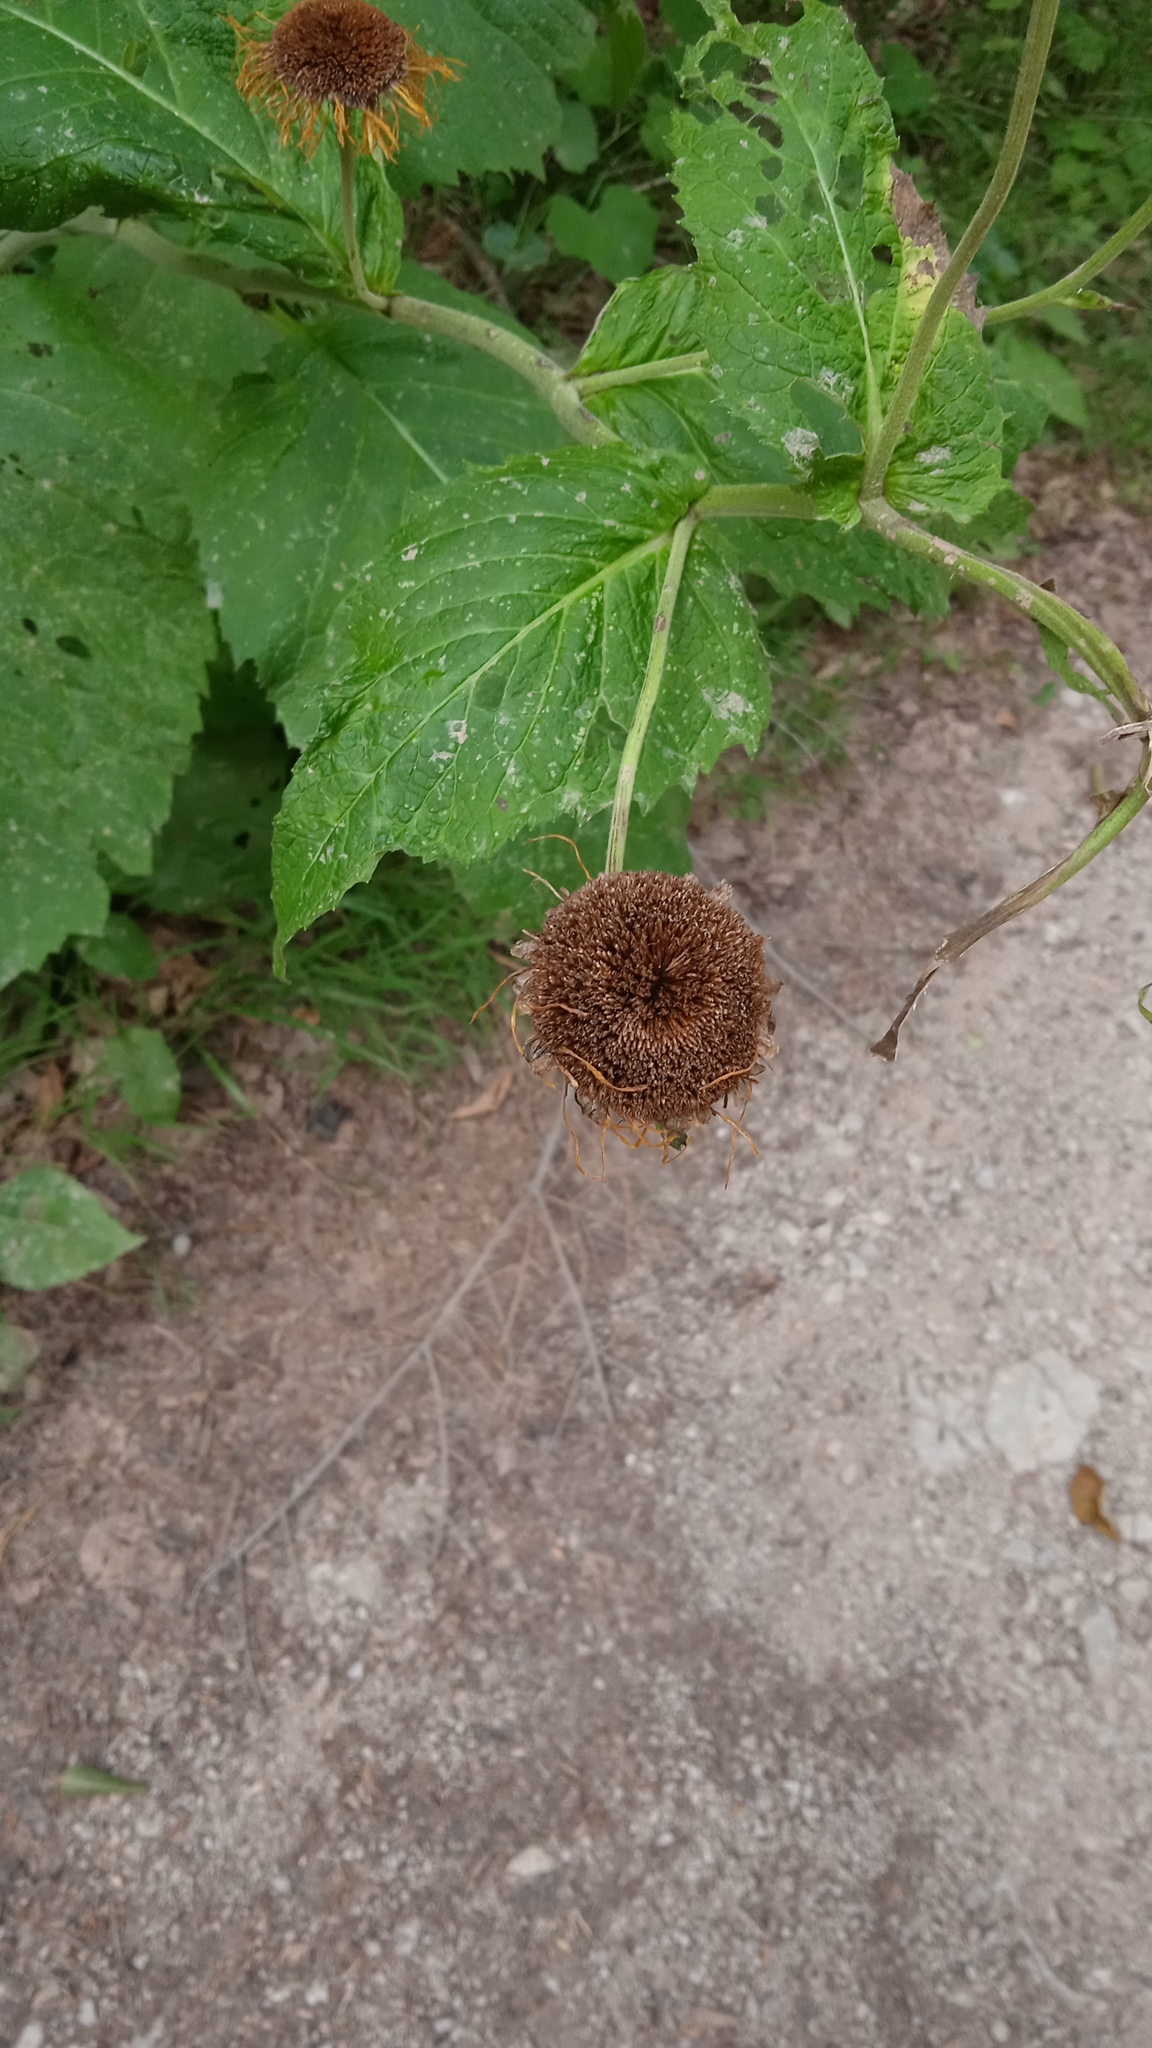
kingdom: Plantae
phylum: Tracheophyta
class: Magnoliopsida
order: Asterales
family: Asteraceae
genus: Telekia
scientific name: Telekia speciosa
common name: Yellow oxeye
